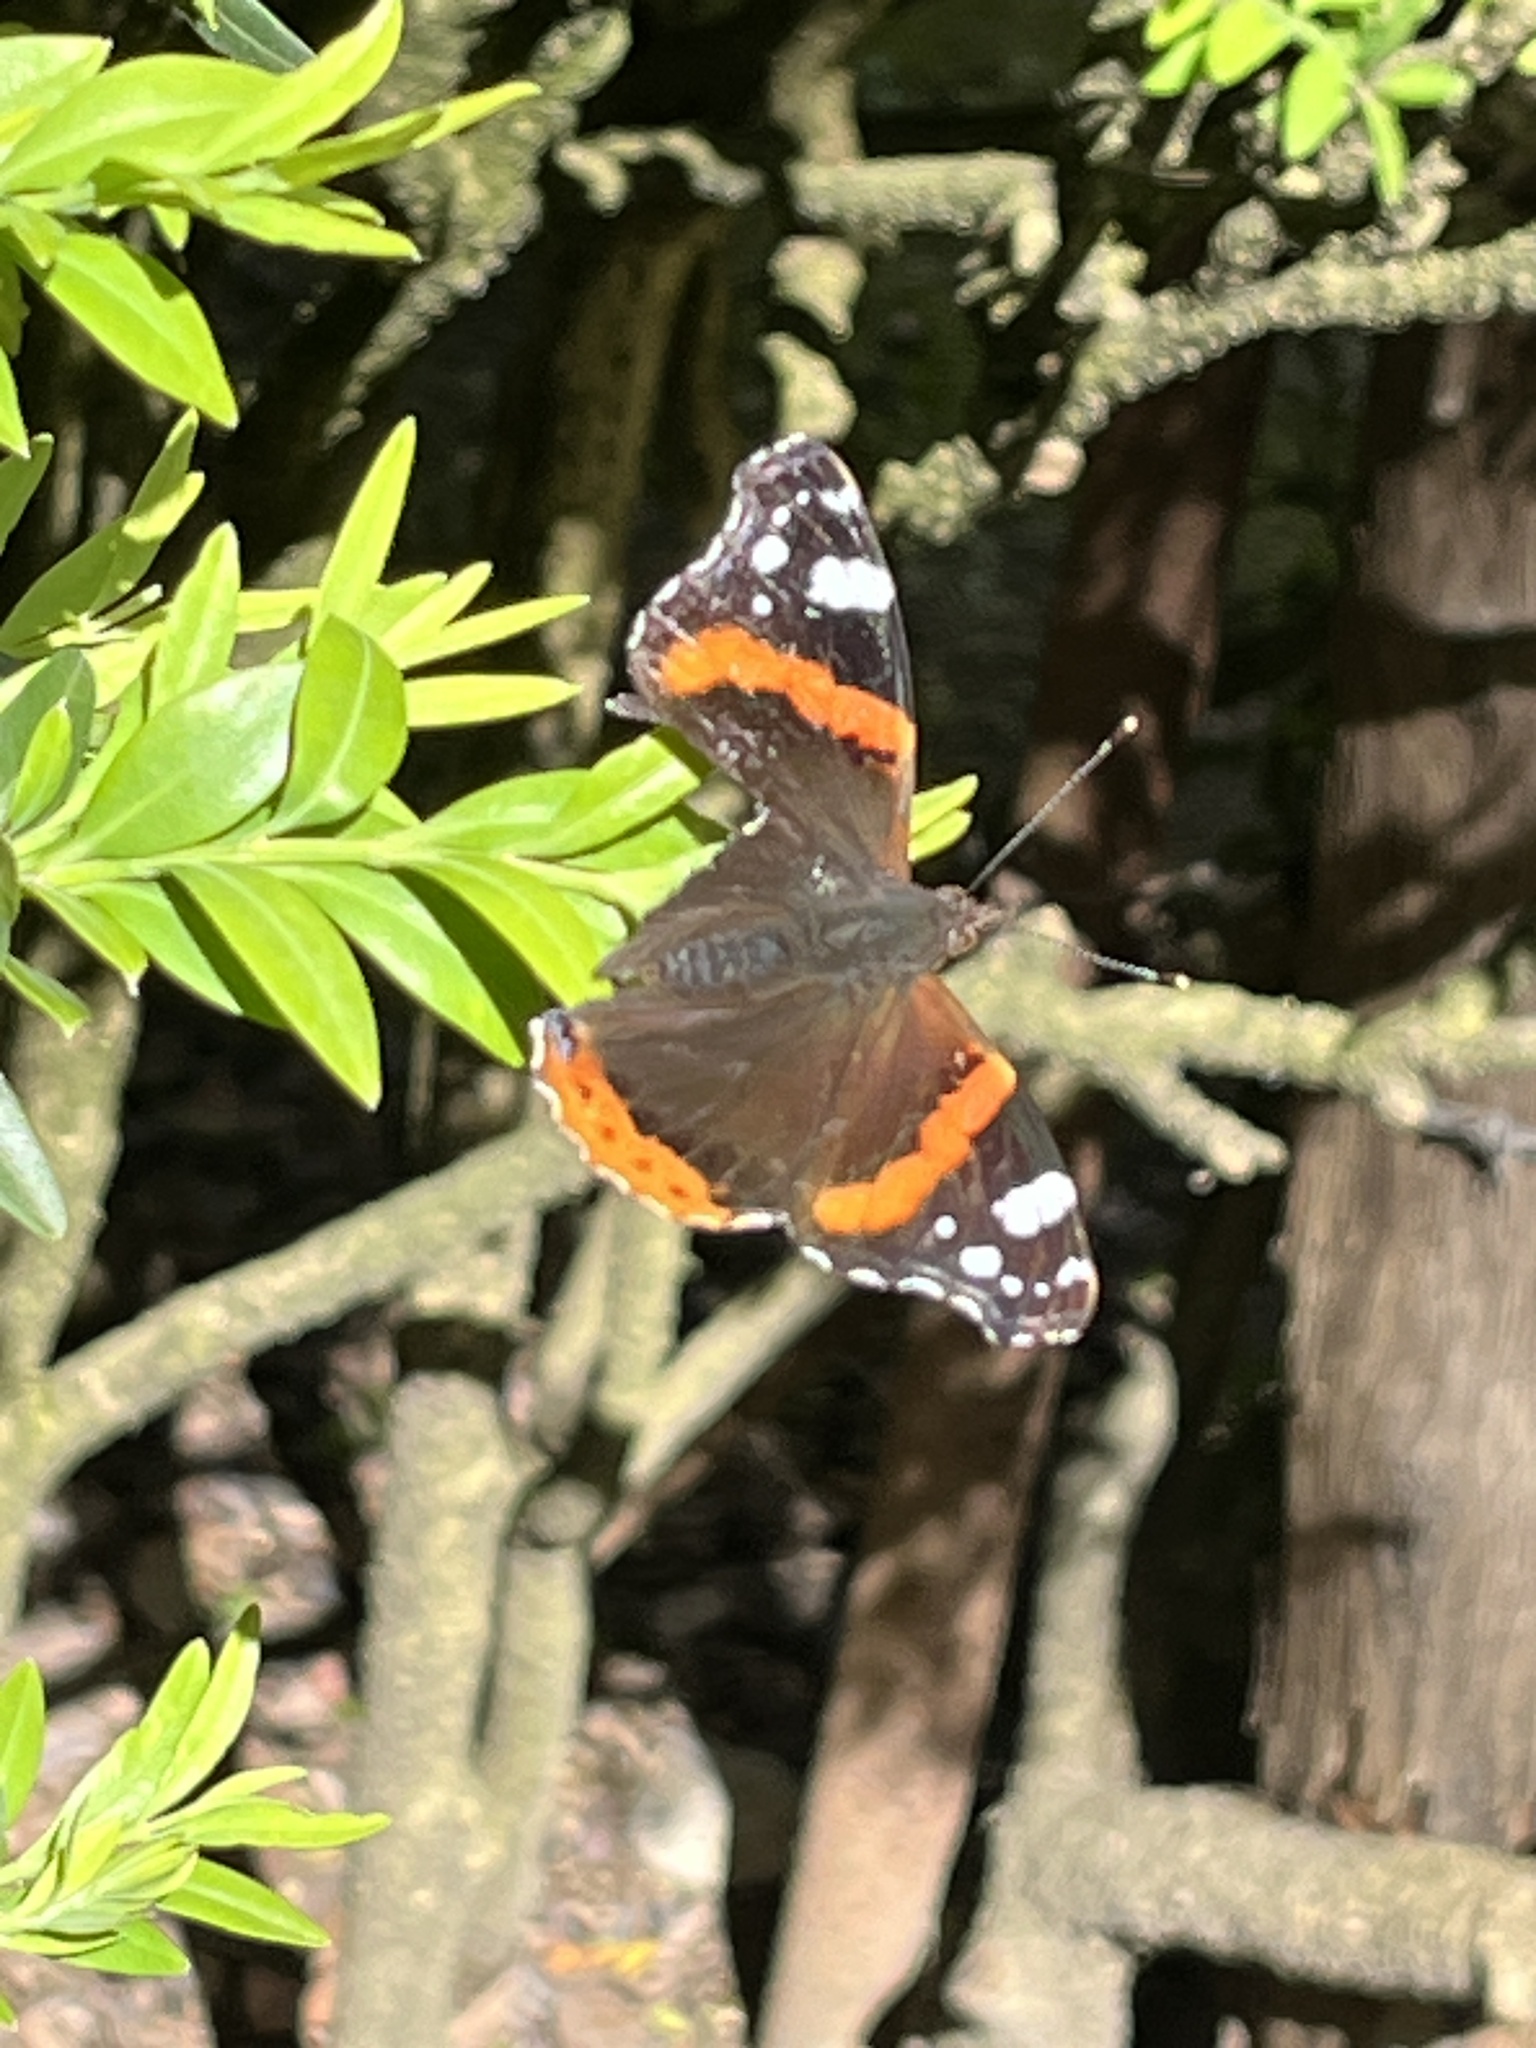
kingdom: Animalia
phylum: Arthropoda
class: Insecta
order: Lepidoptera
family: Nymphalidae
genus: Vanessa
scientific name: Vanessa atalanta
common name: Red admiral
